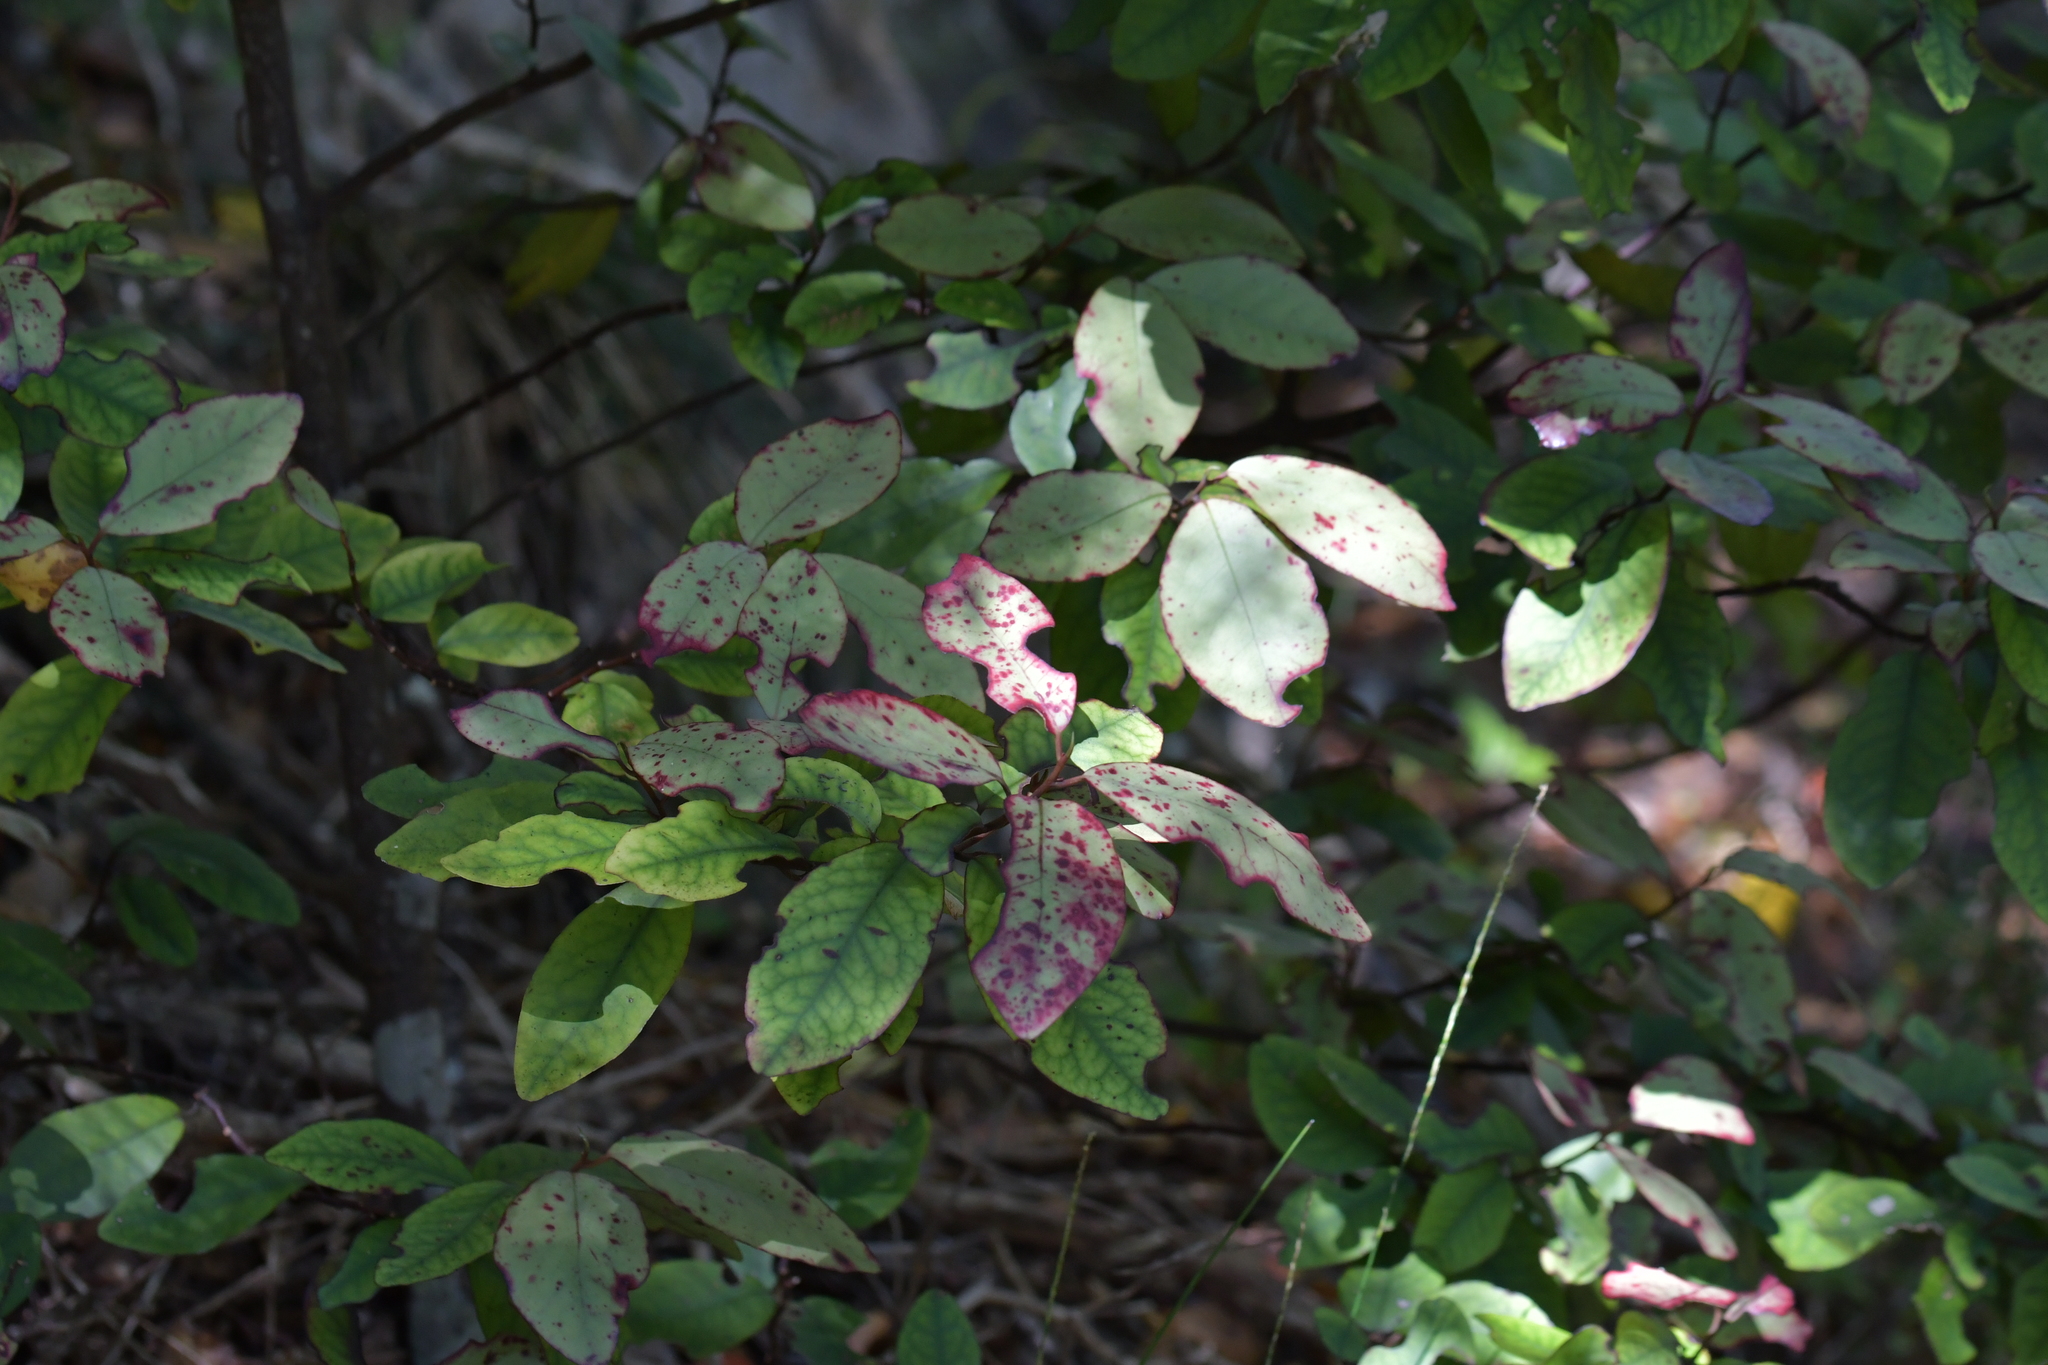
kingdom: Plantae
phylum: Tracheophyta
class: Magnoliopsida
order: Canellales
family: Winteraceae
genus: Pseudowintera
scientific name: Pseudowintera colorata
